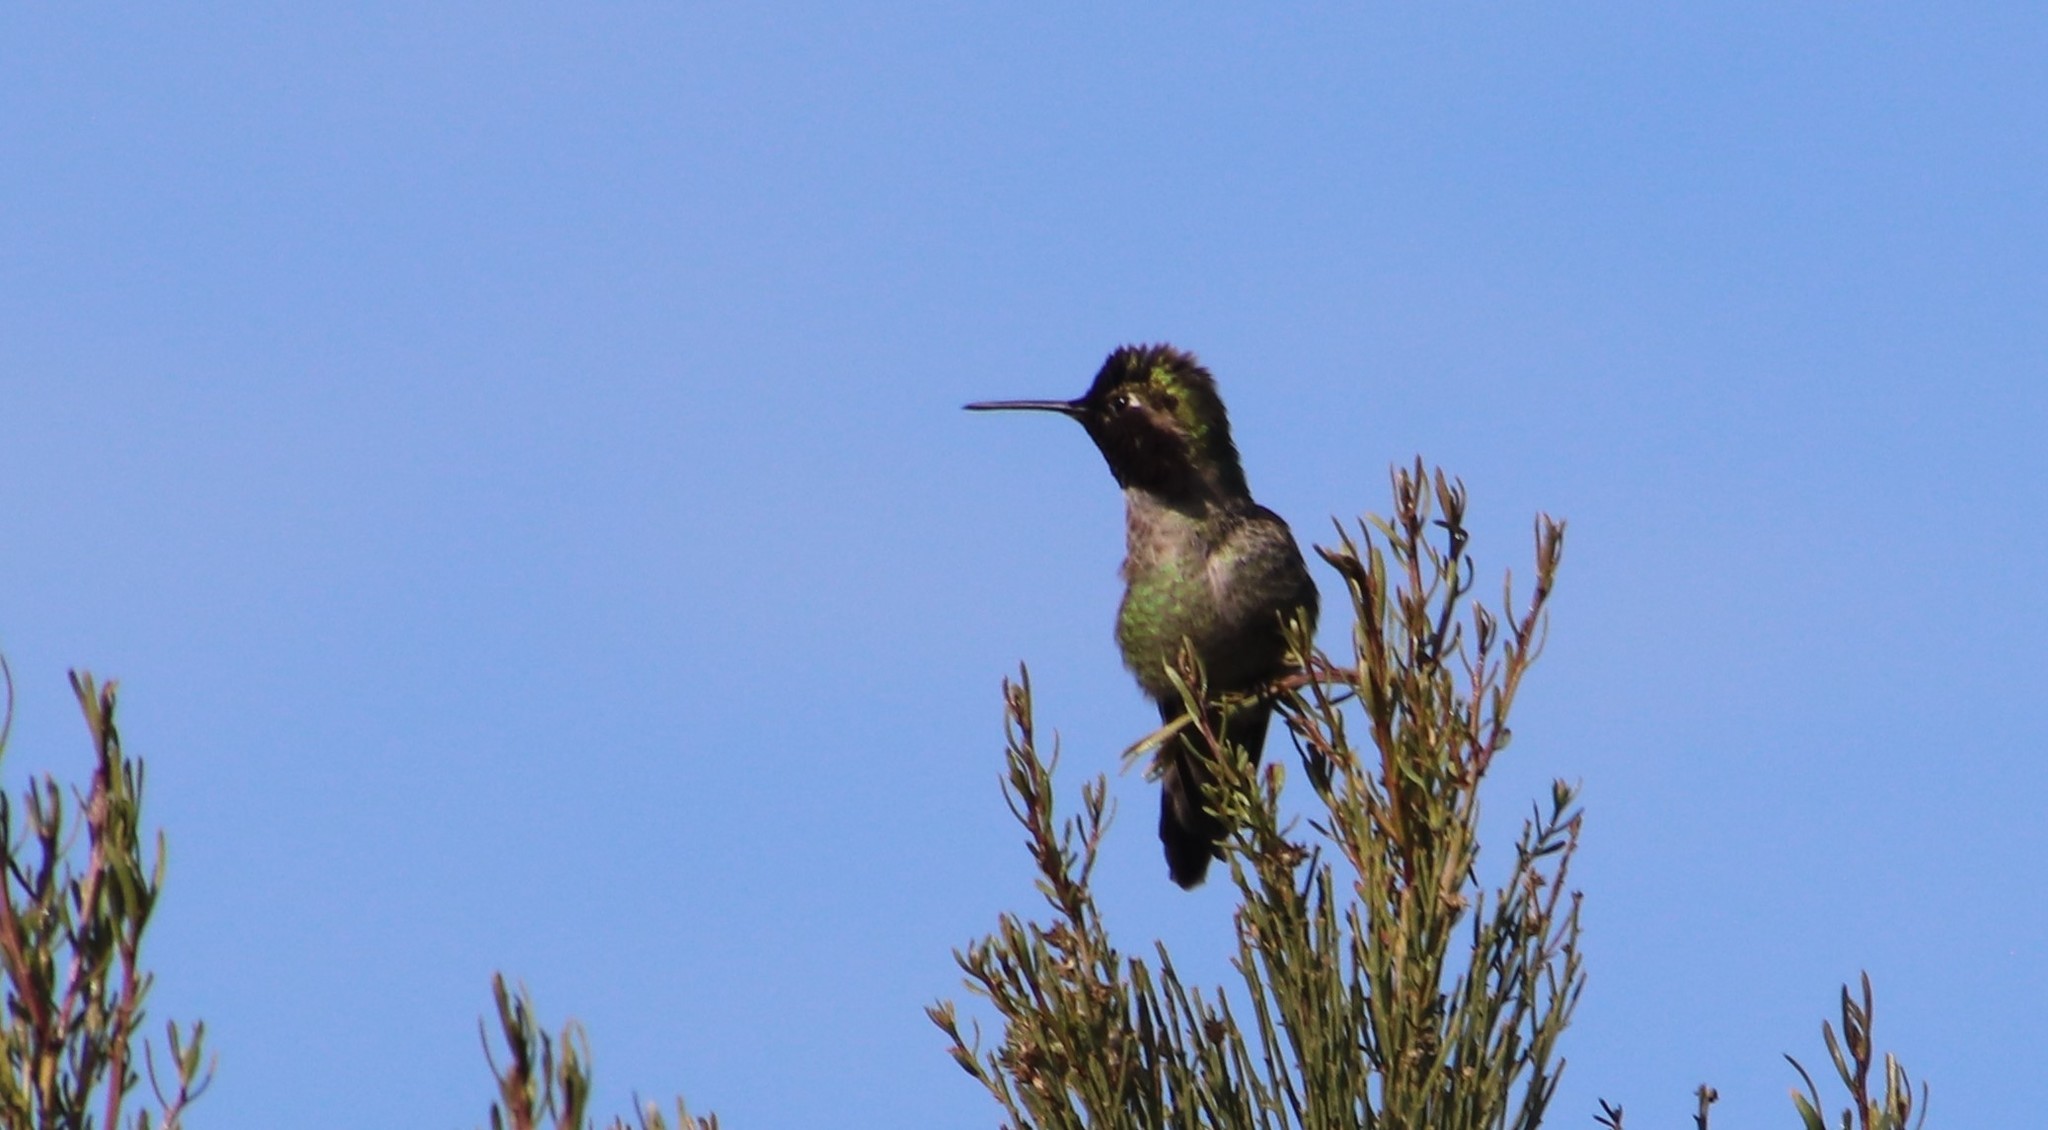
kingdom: Animalia
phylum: Chordata
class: Aves
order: Apodiformes
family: Trochilidae
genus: Calypte
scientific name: Calypte anna
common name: Anna's hummingbird
